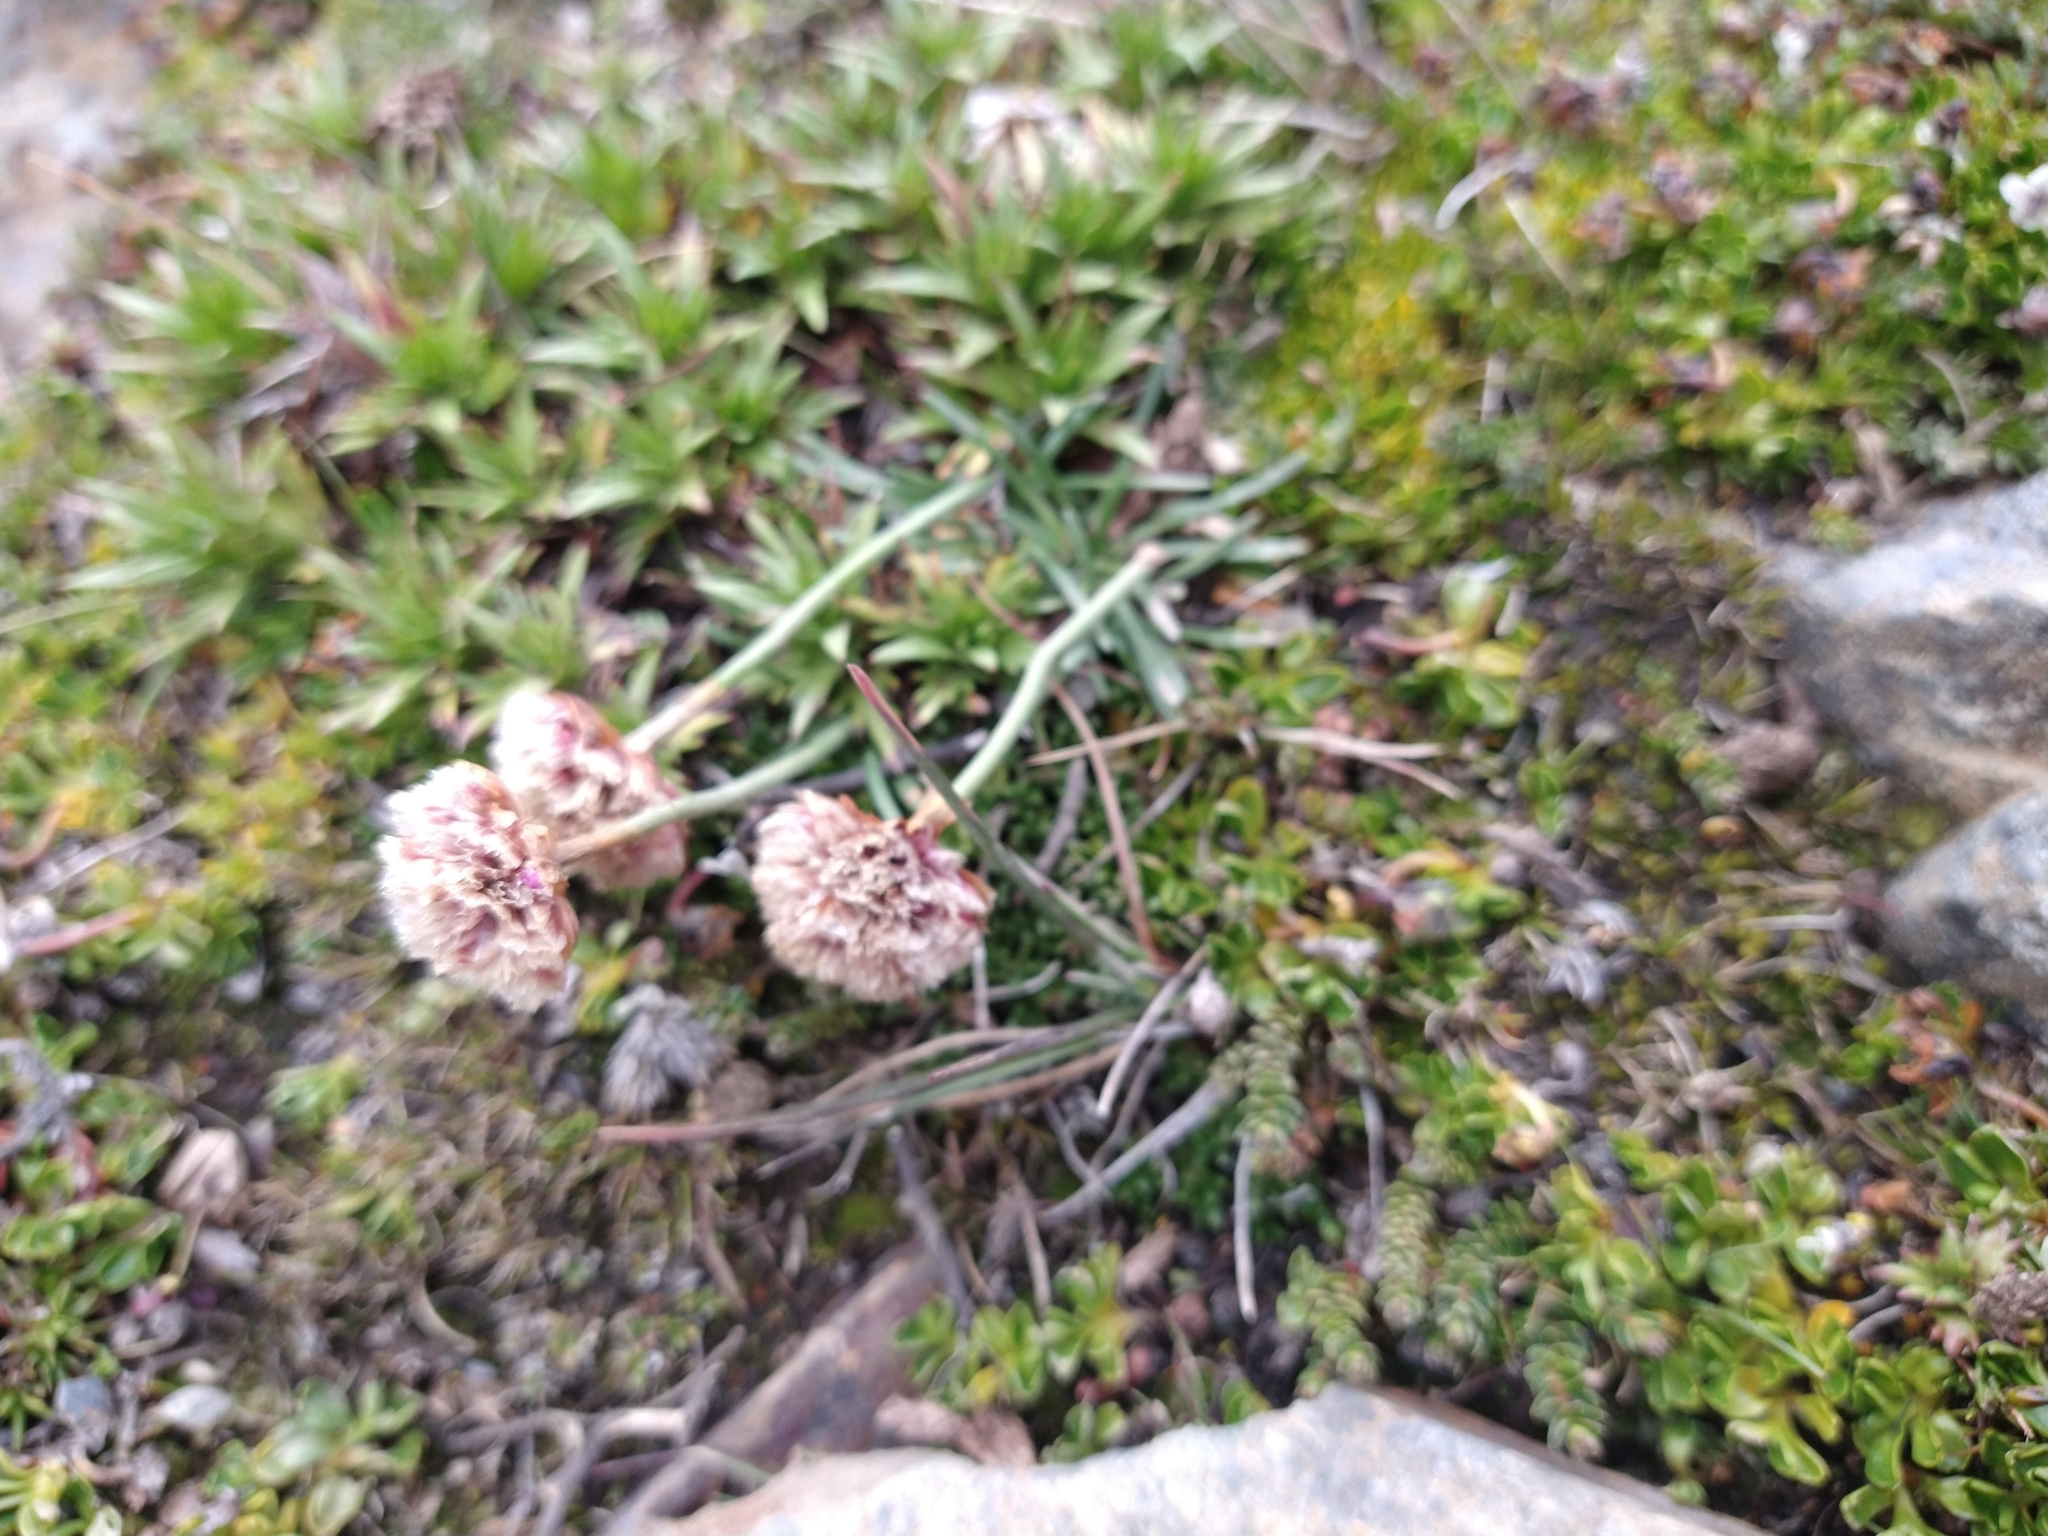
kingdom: Plantae
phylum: Tracheophyta
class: Magnoliopsida
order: Caryophyllales
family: Plumbaginaceae
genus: Armeria
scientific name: Armeria curvifolia
